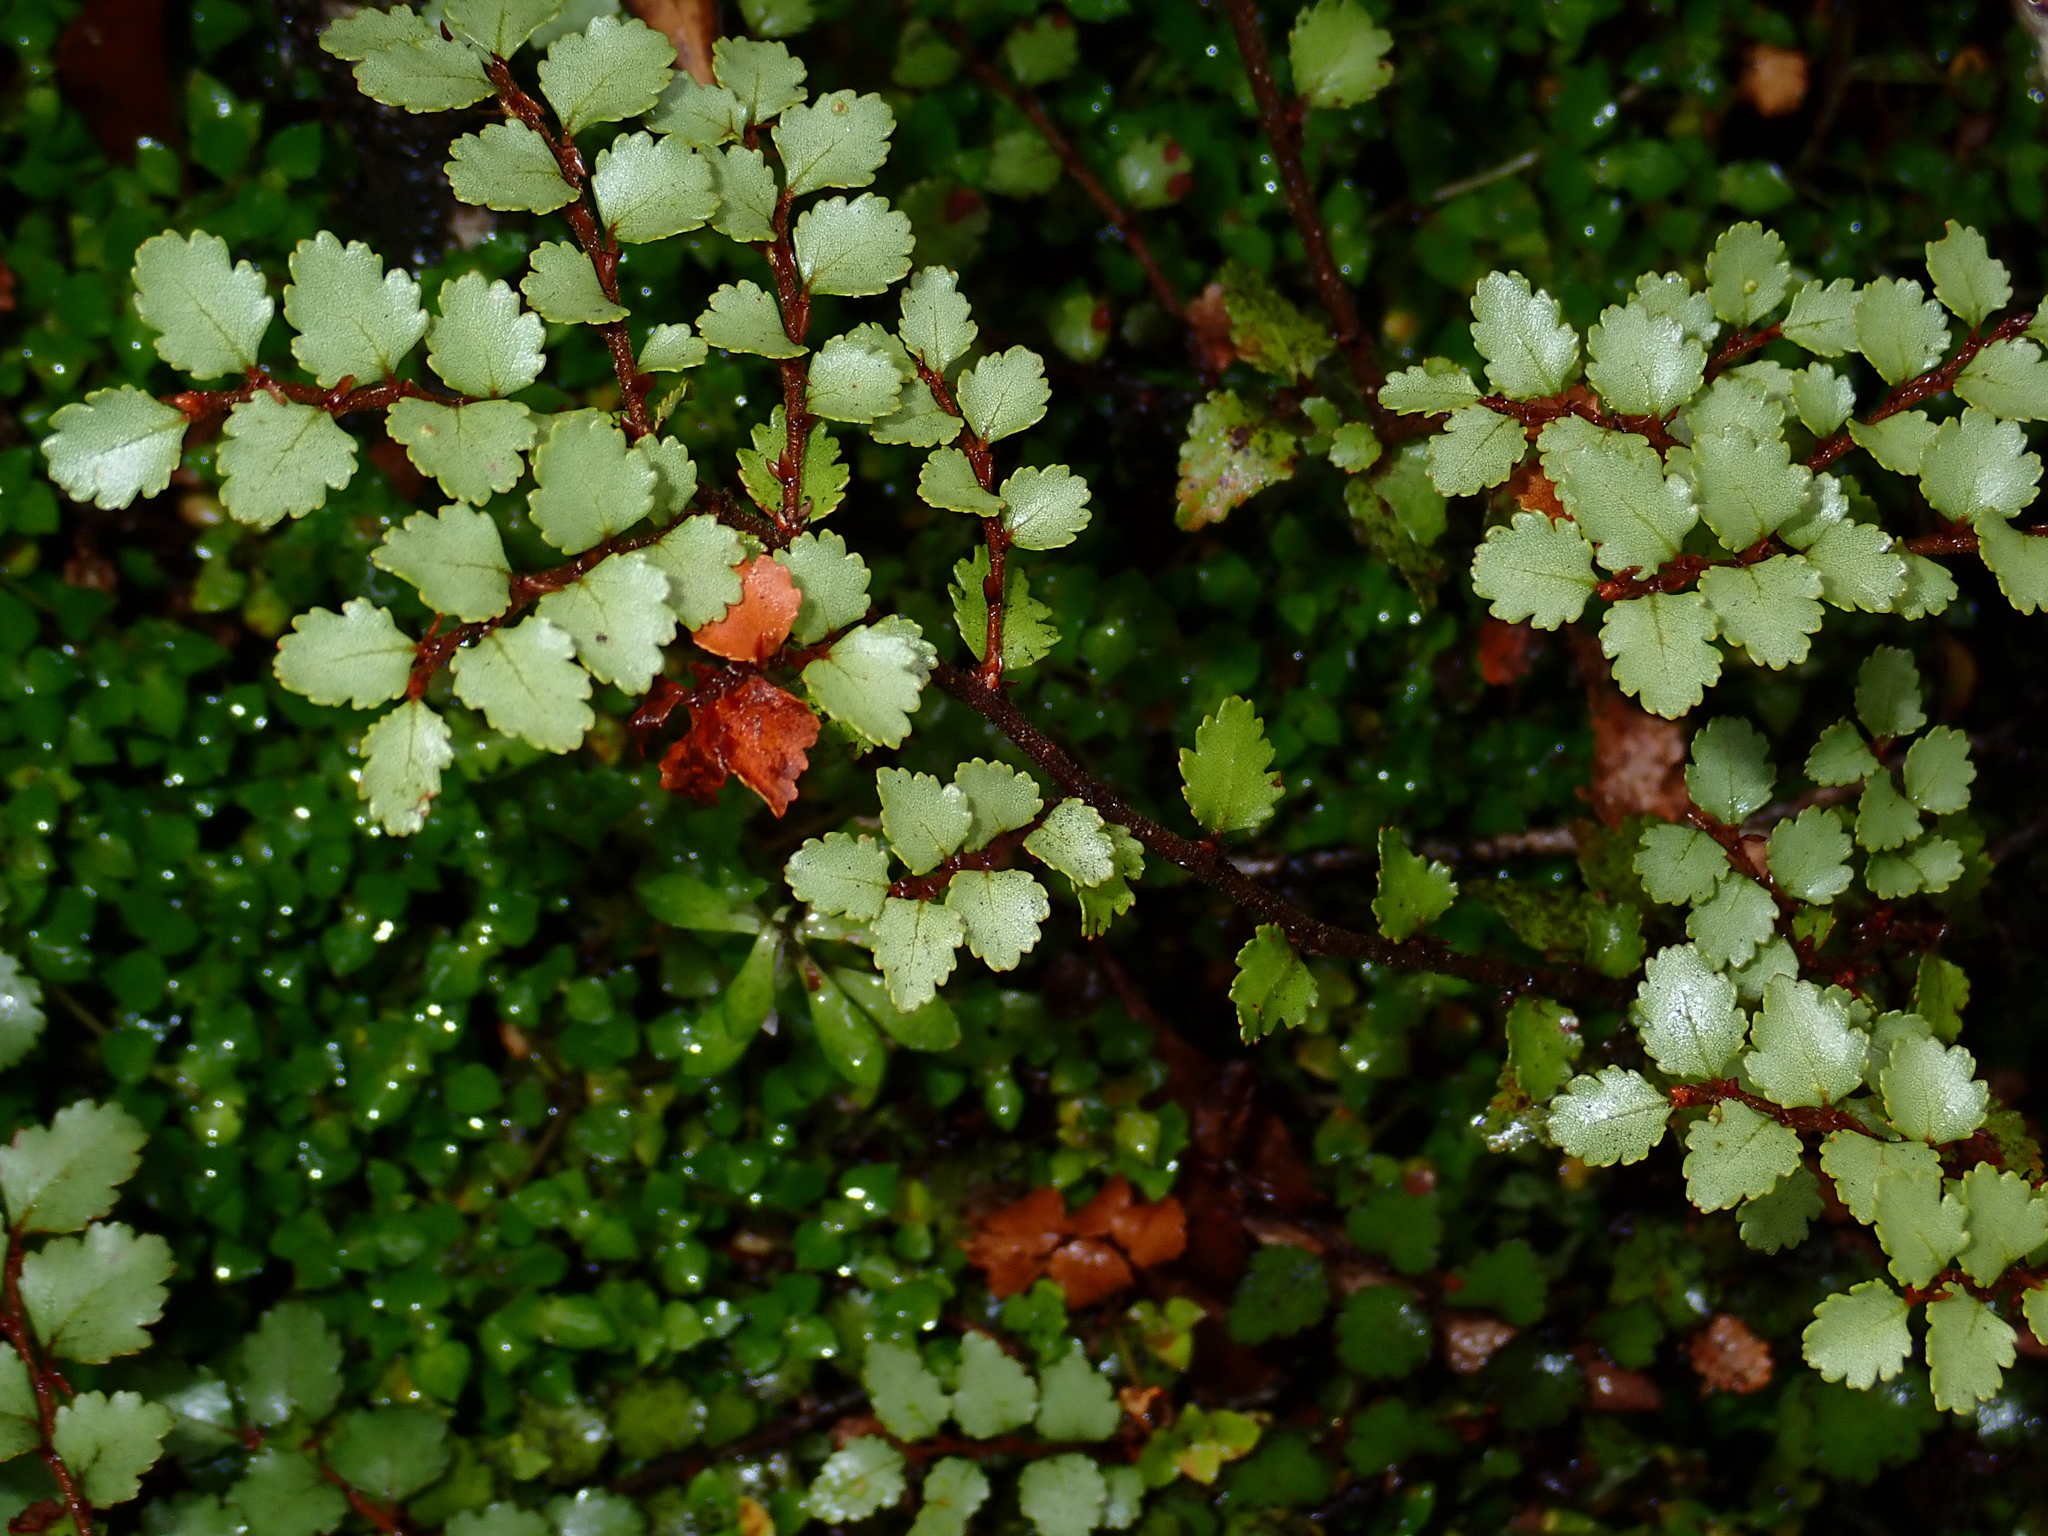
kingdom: Plantae
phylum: Tracheophyta
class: Magnoliopsida
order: Fagales
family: Nothofagaceae
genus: Nothofagus
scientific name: Nothofagus menziesii
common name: Silver beech
